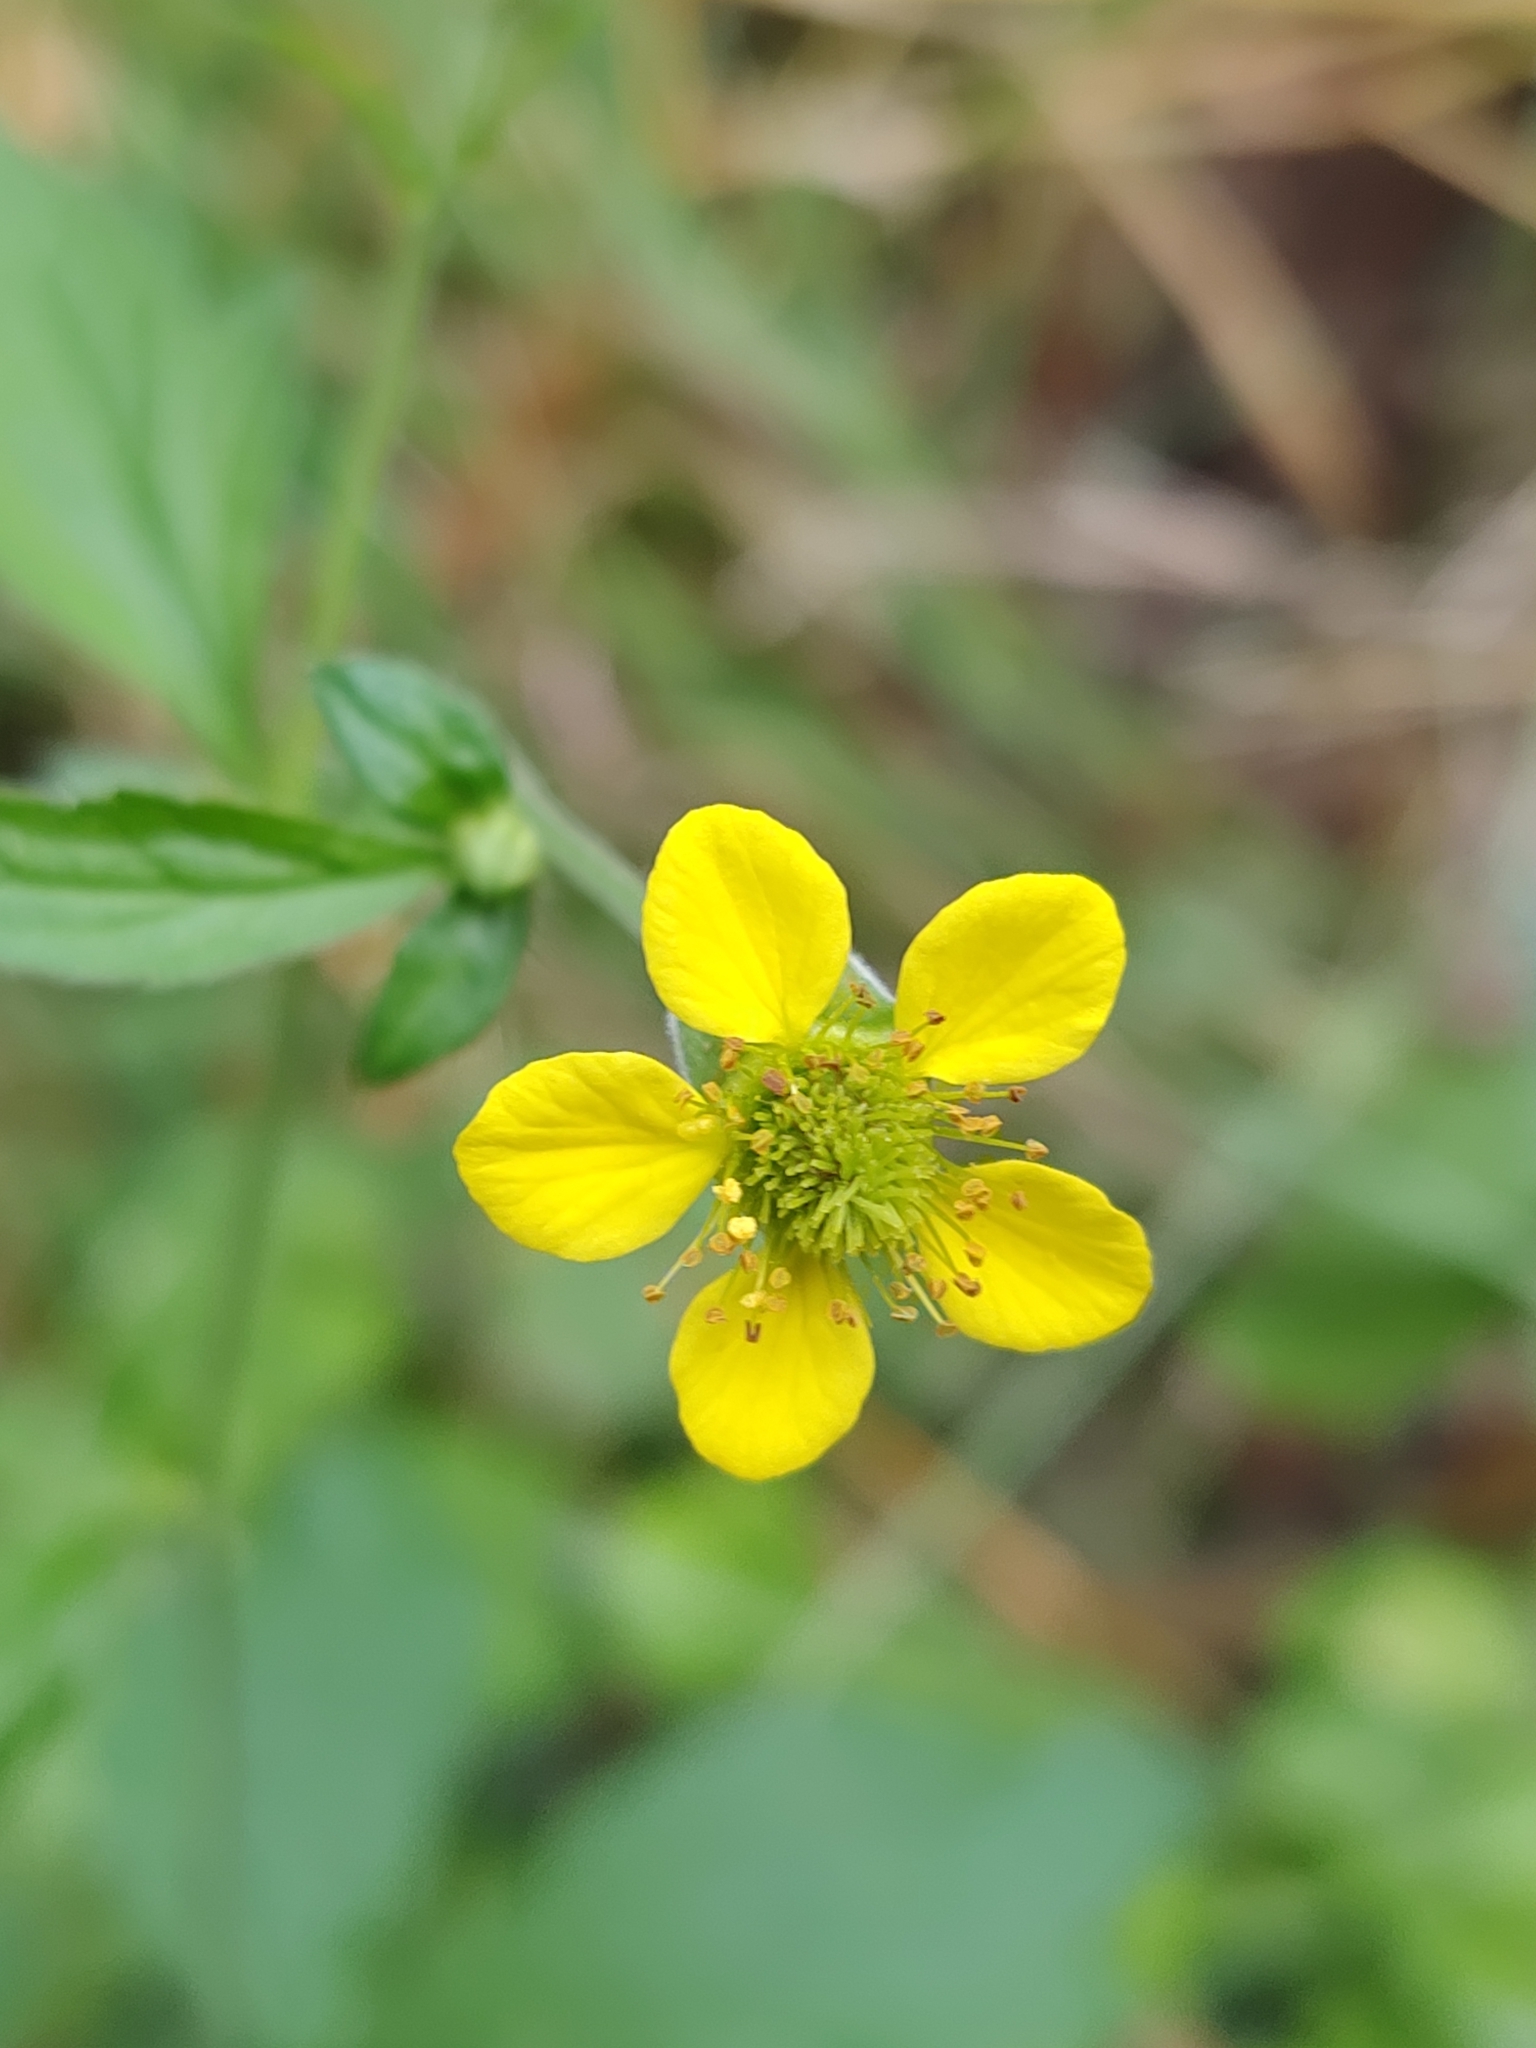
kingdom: Plantae
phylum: Tracheophyta
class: Magnoliopsida
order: Rosales
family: Rosaceae
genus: Geum
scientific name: Geum urbanum
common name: Wood avens
